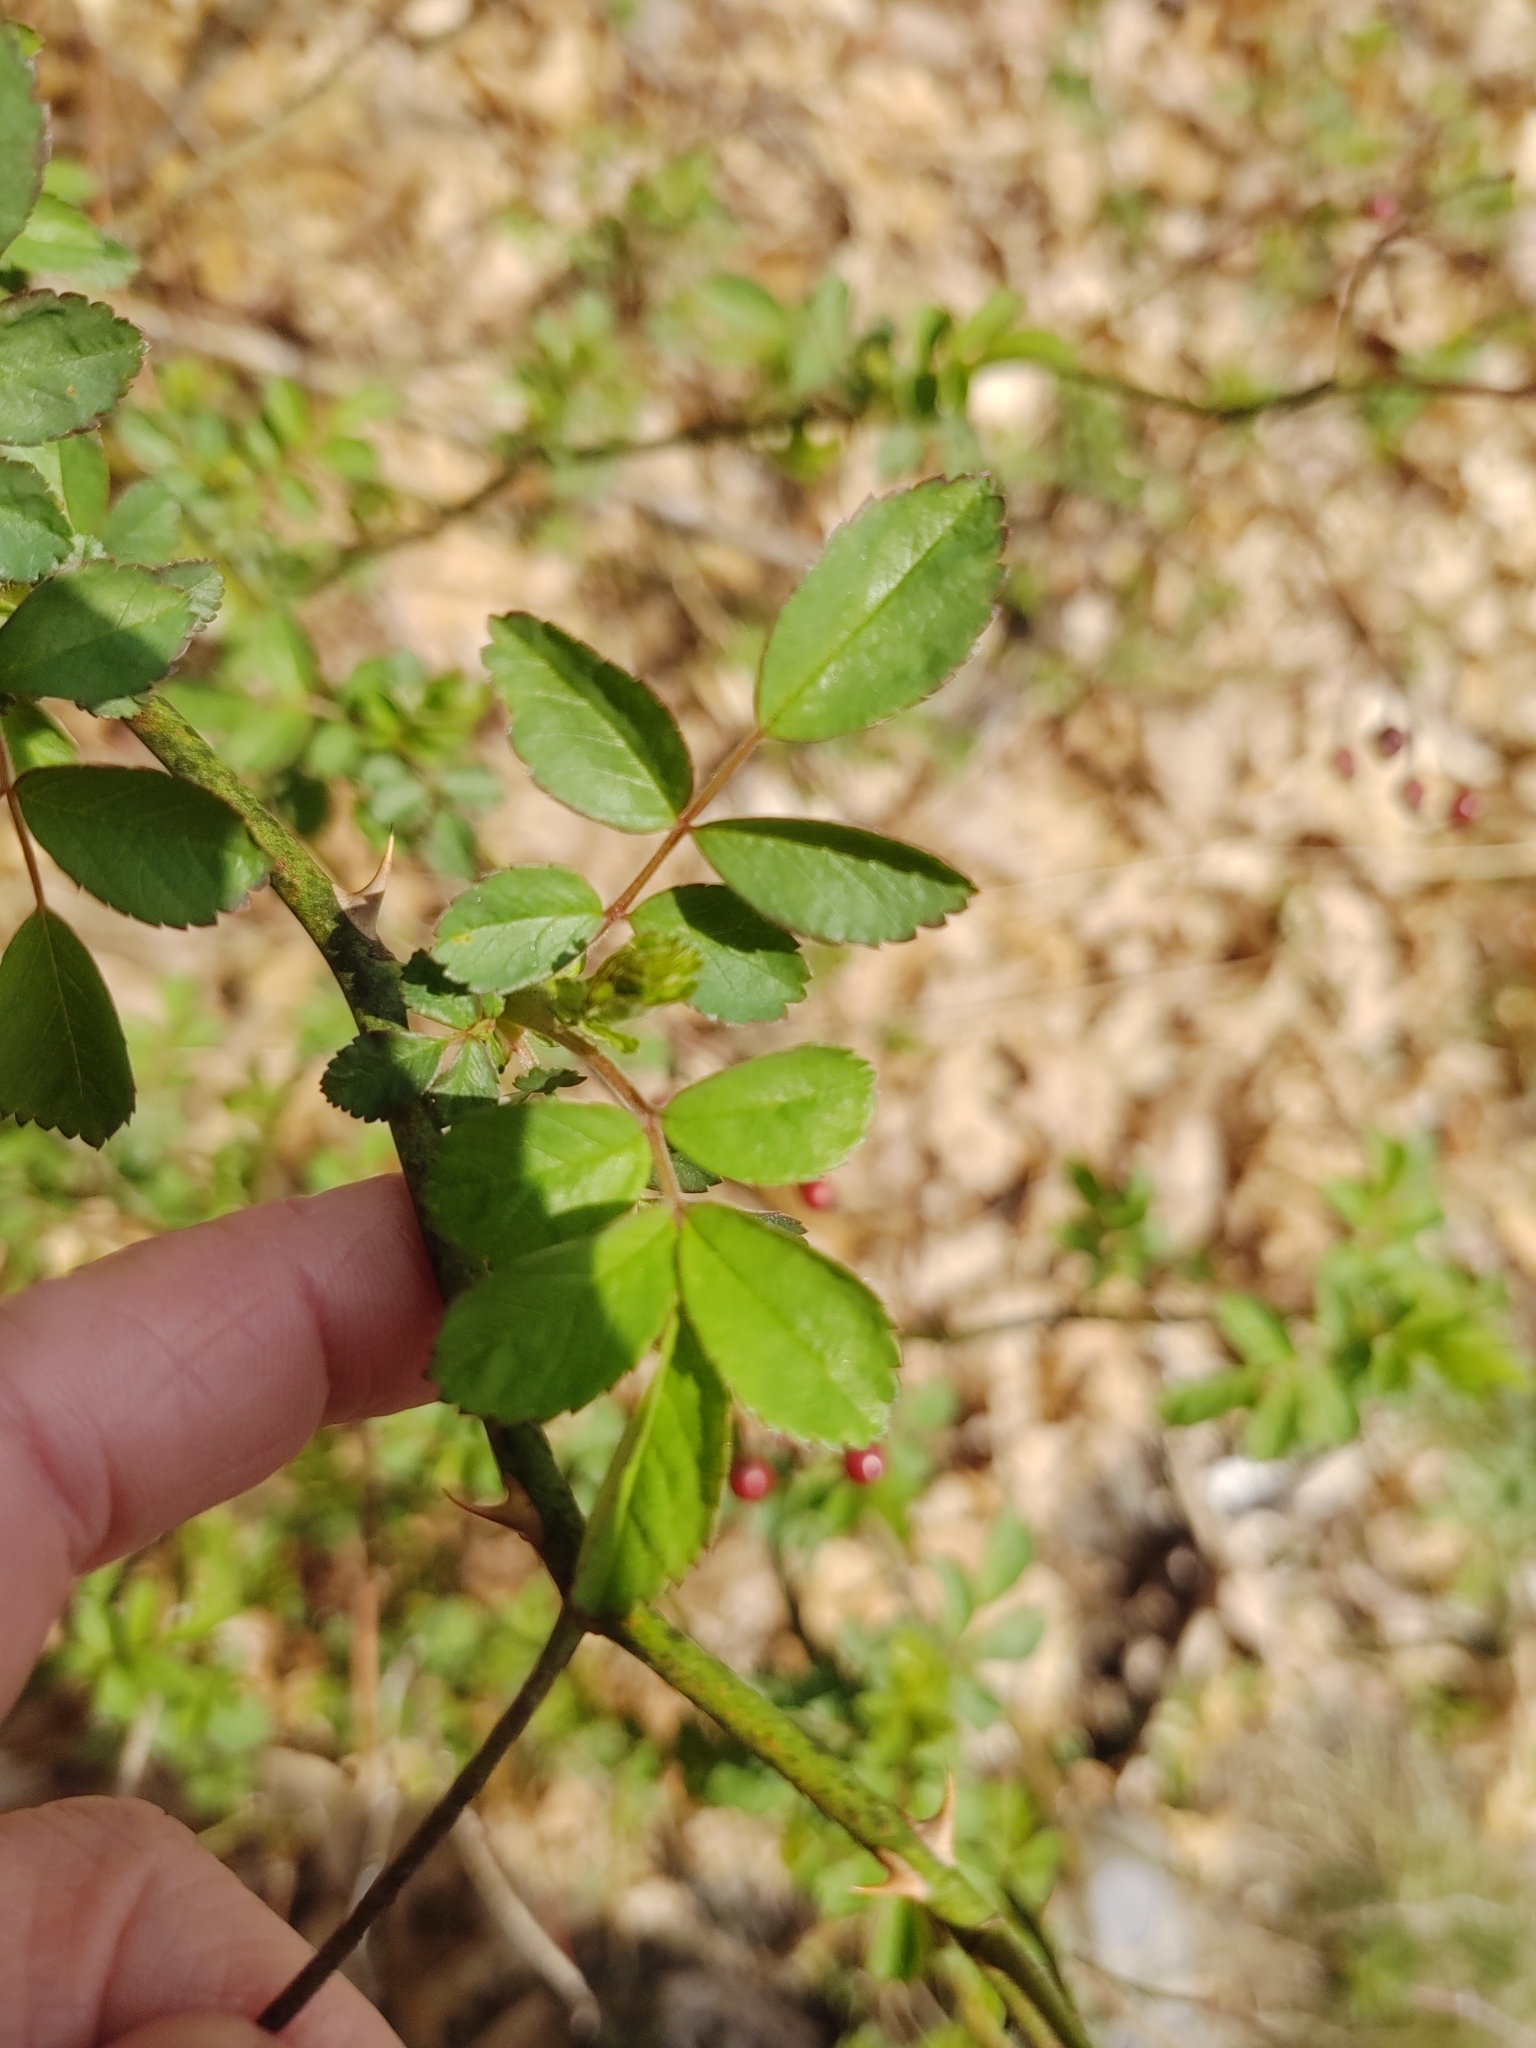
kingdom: Plantae
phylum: Tracheophyta
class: Magnoliopsida
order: Rosales
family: Rosaceae
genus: Rosa
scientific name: Rosa multiflora
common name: Multiflora rose
